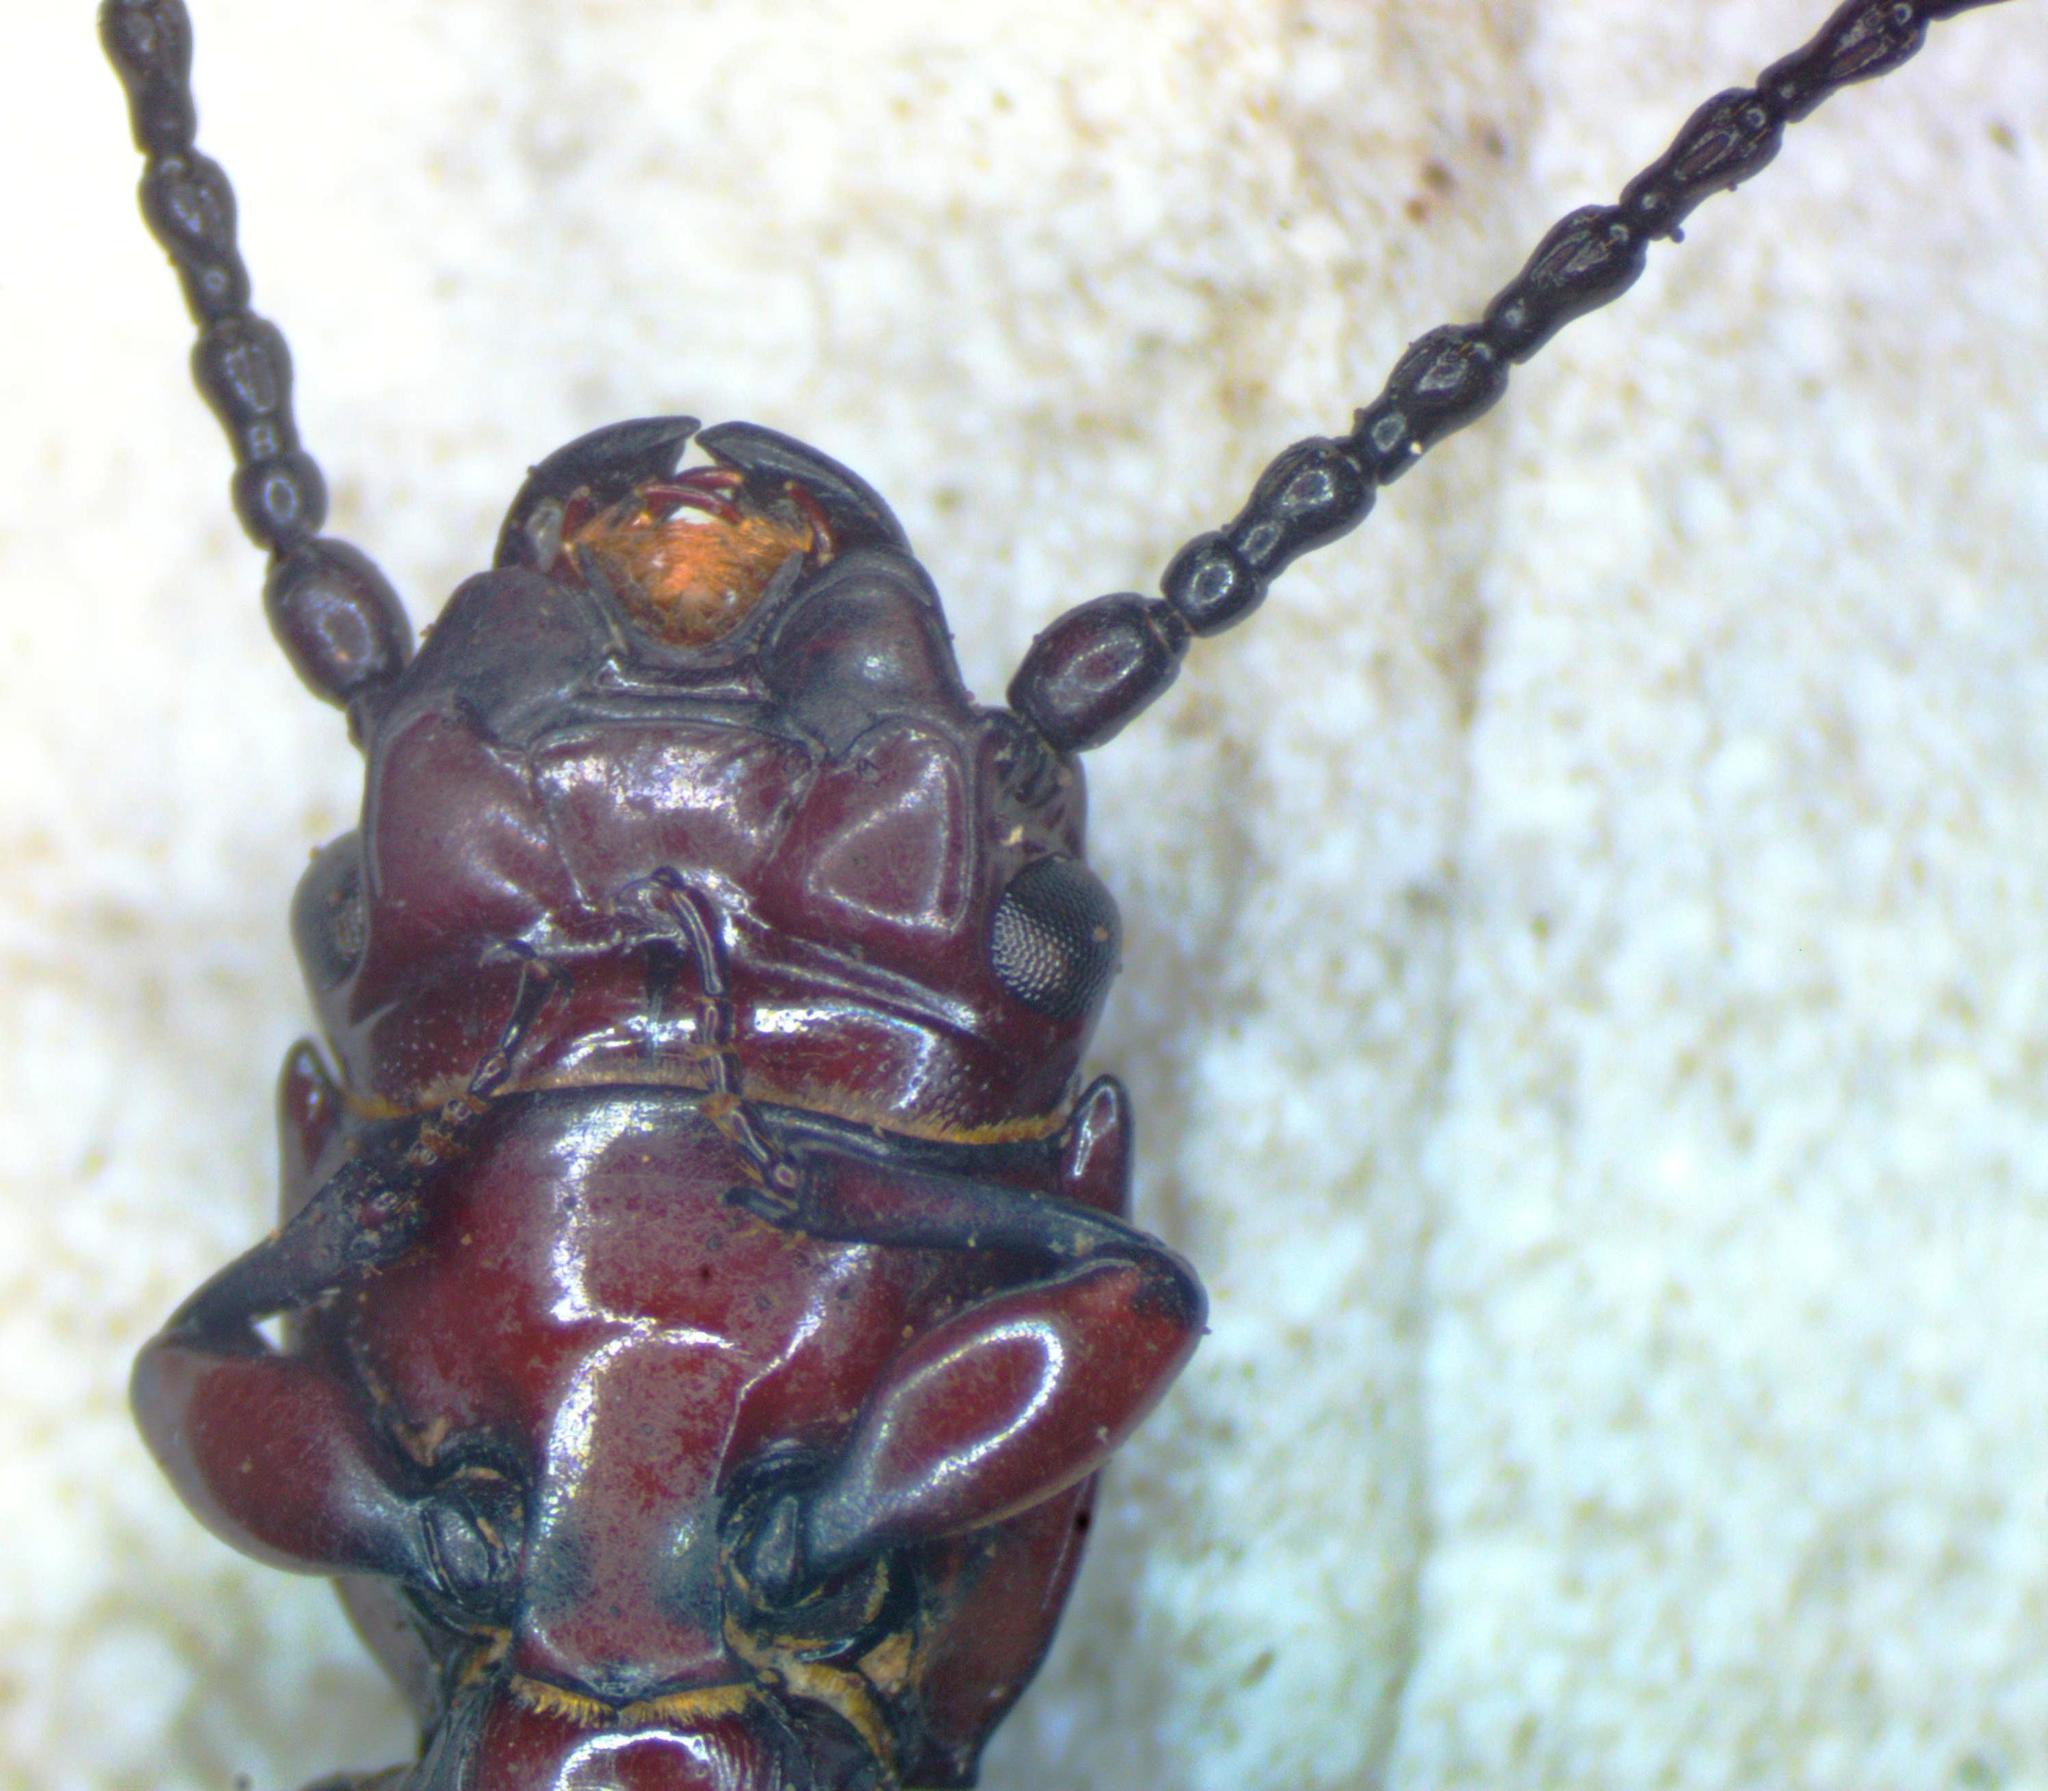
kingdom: Animalia
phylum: Arthropoda
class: Insecta
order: Coleoptera
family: Passandridae
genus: Passandra
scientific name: Passandra fasciata
